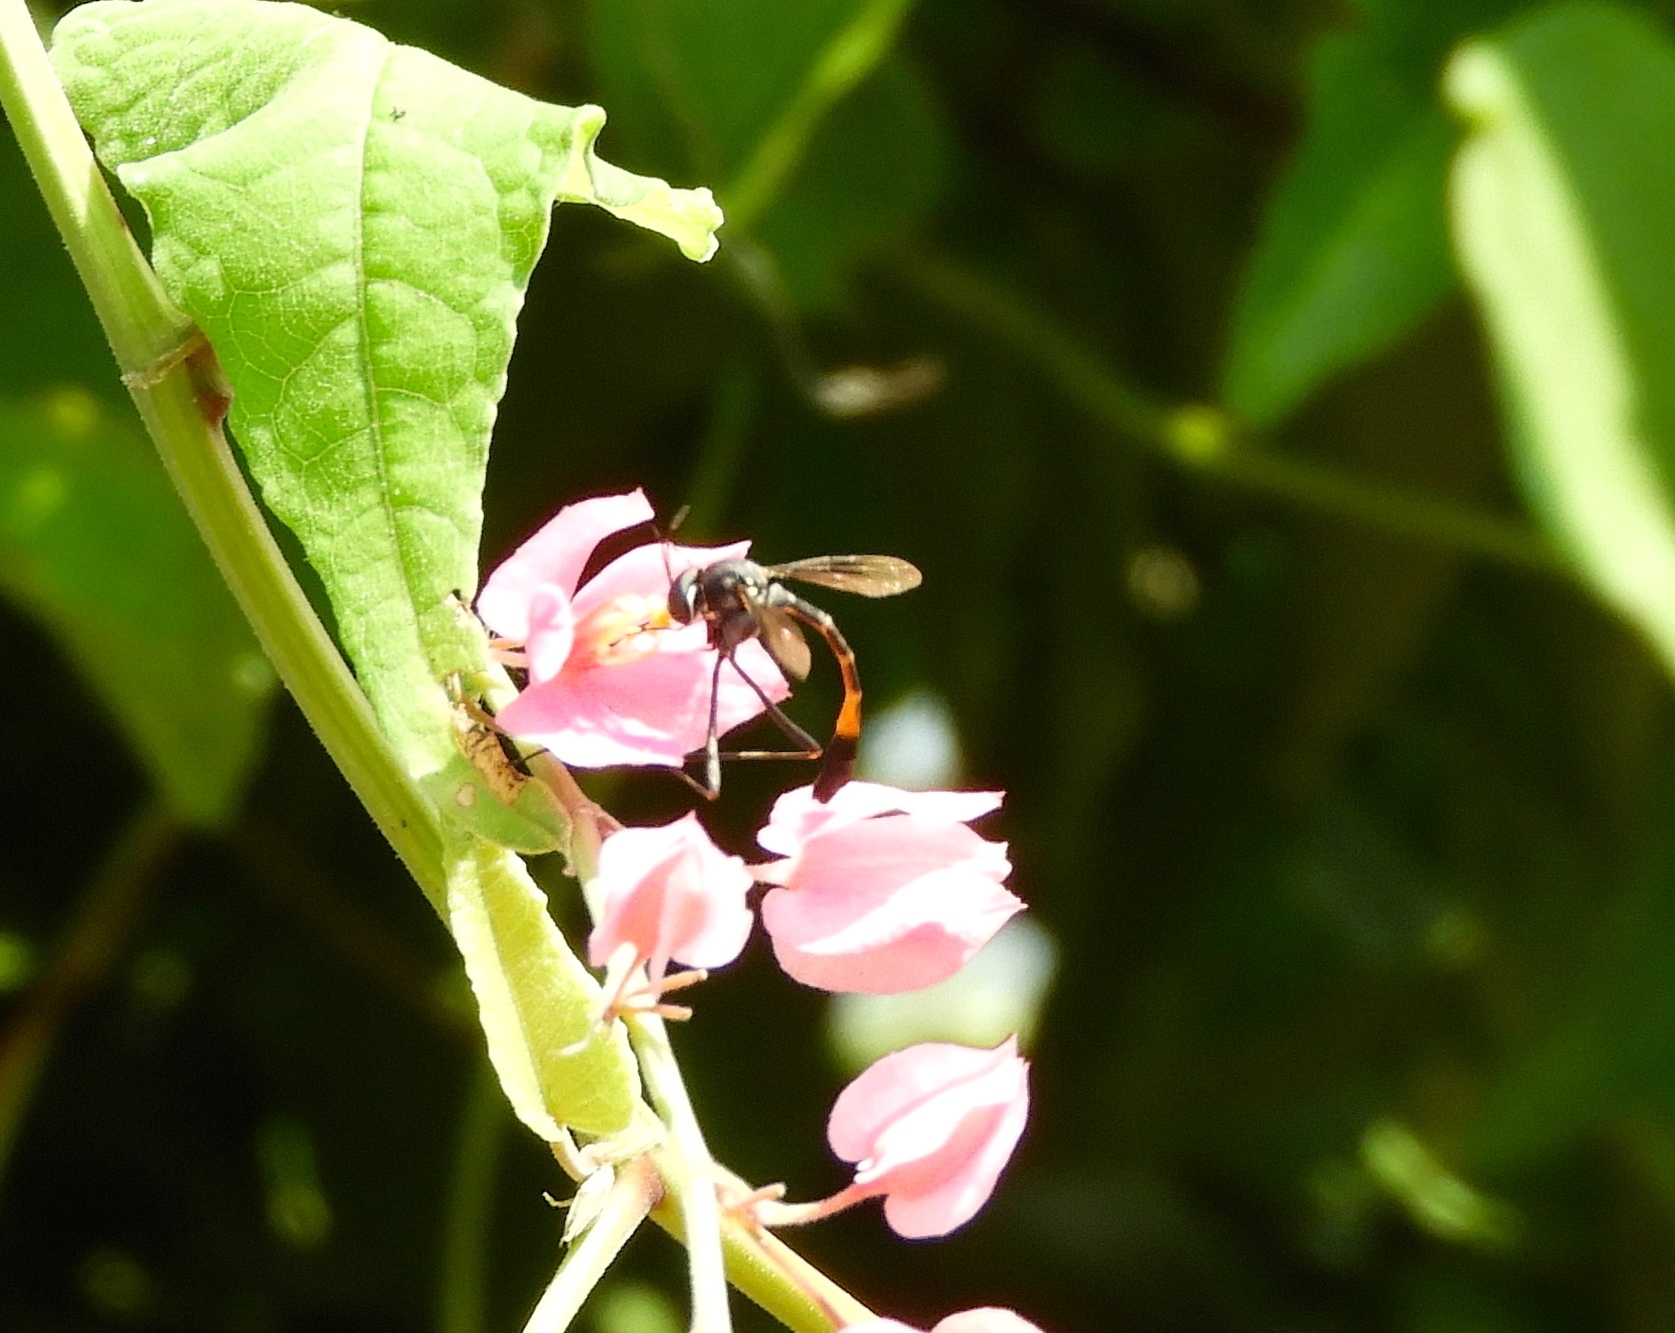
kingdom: Animalia
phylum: Arthropoda
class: Insecta
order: Diptera
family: Bombyliidae
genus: Systropus
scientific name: Systropus
